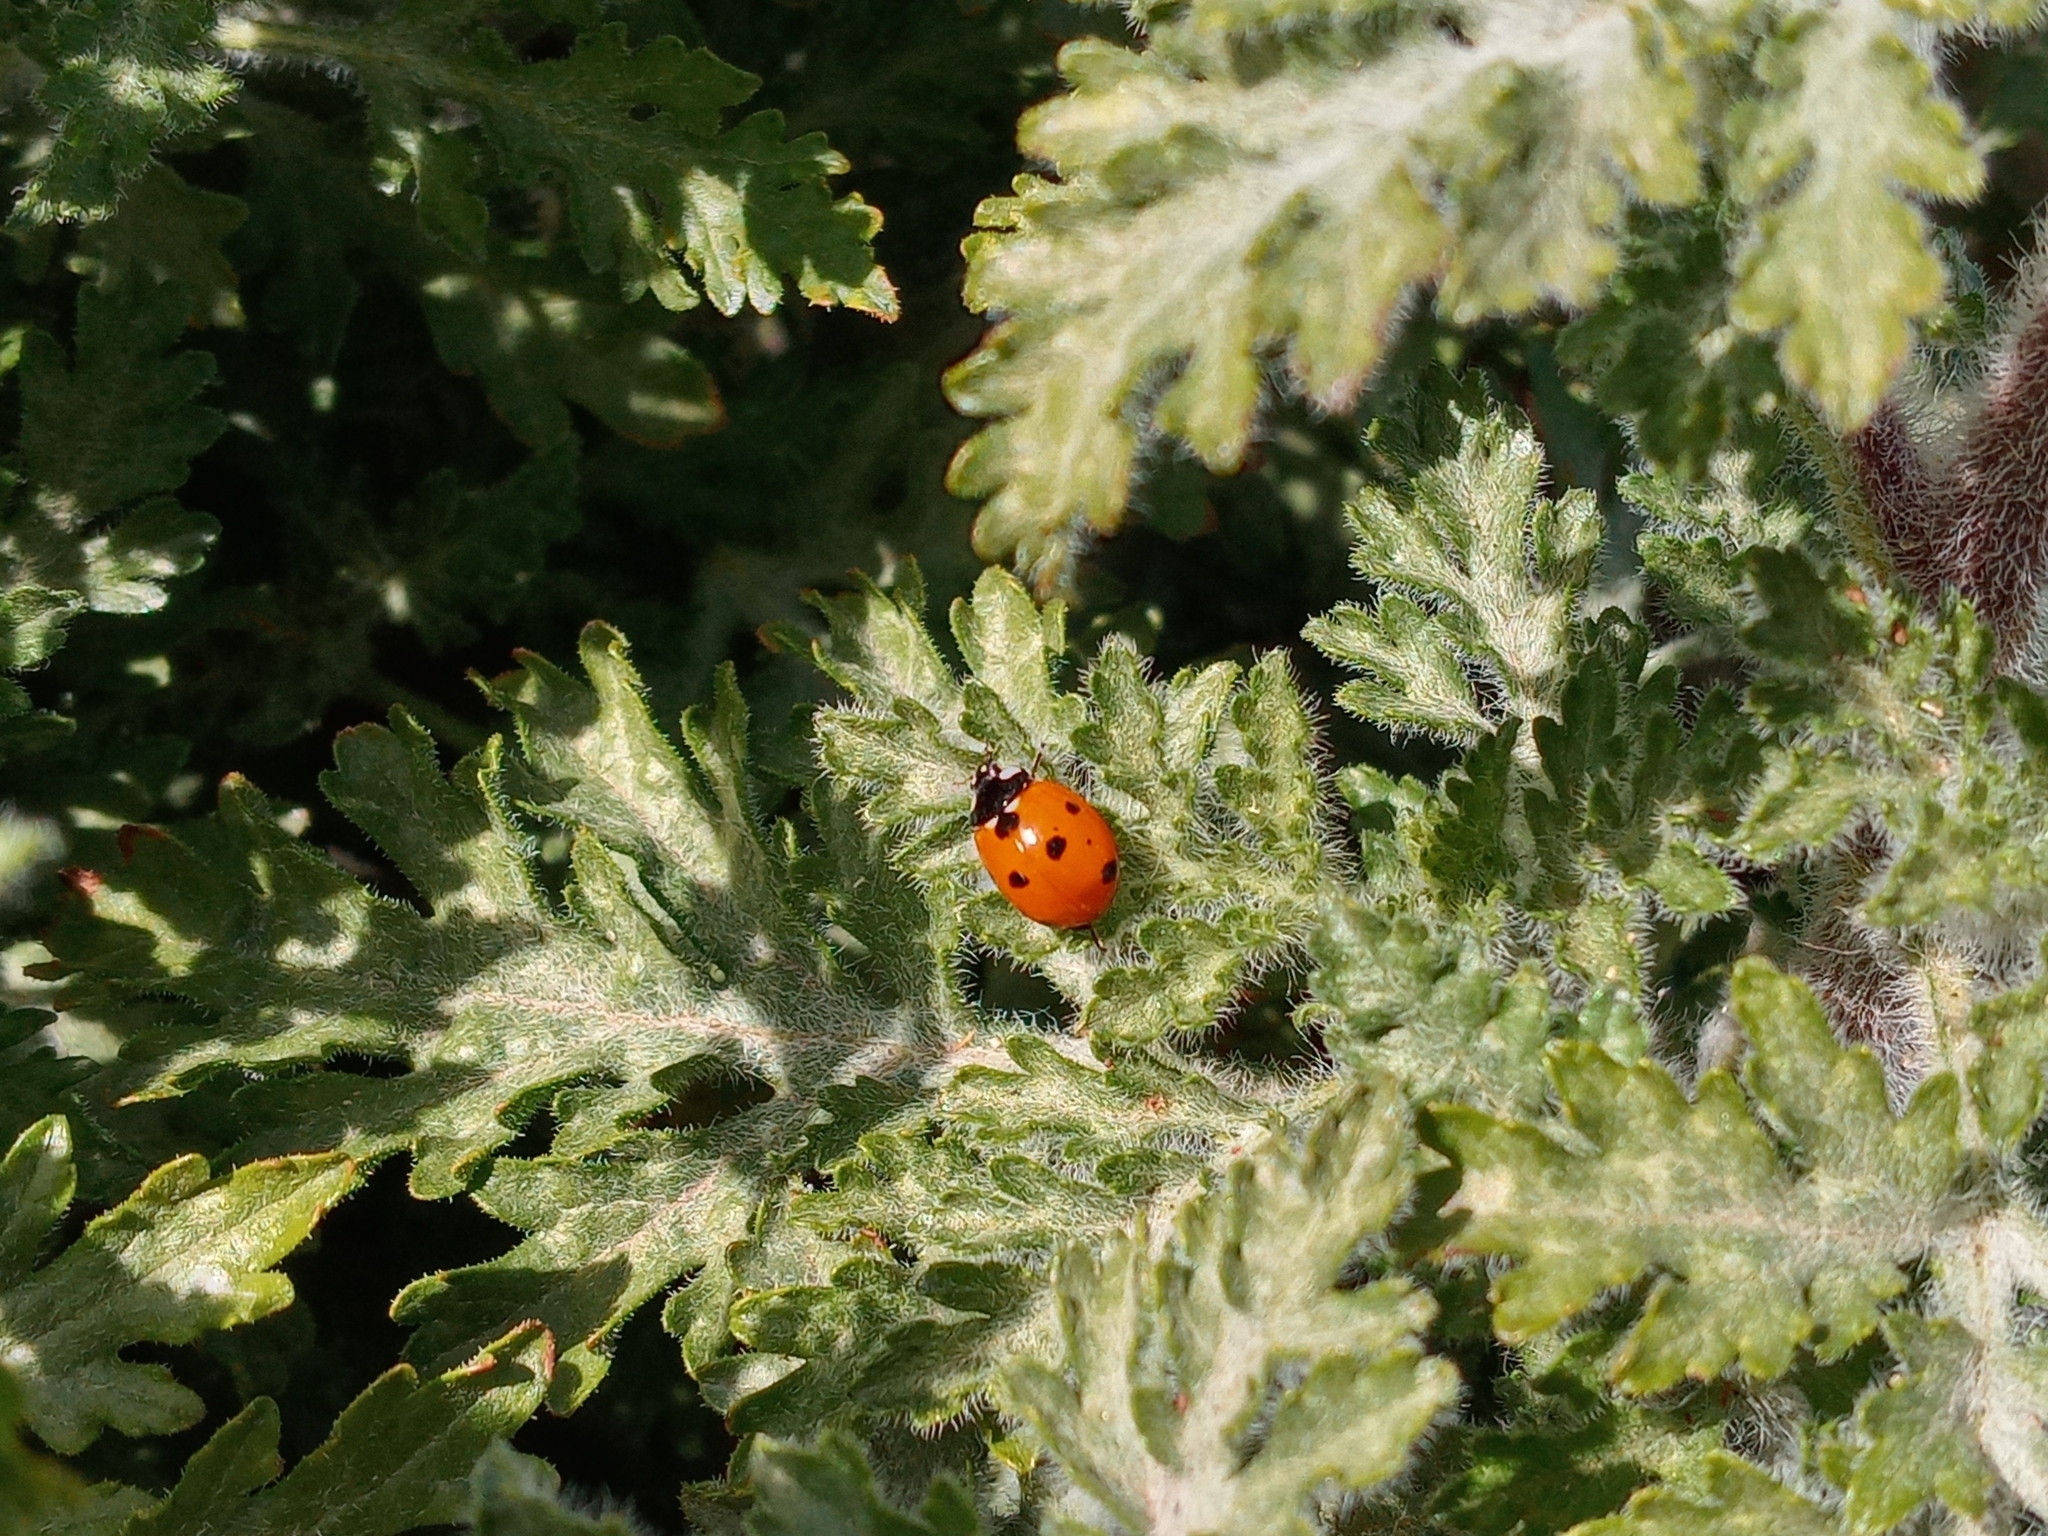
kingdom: Plantae
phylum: Tracheophyta
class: Magnoliopsida
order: Asterales
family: Asteraceae
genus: Ambrosia
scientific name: Ambrosia acanthicarpa
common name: Hooker's bur ragweed
